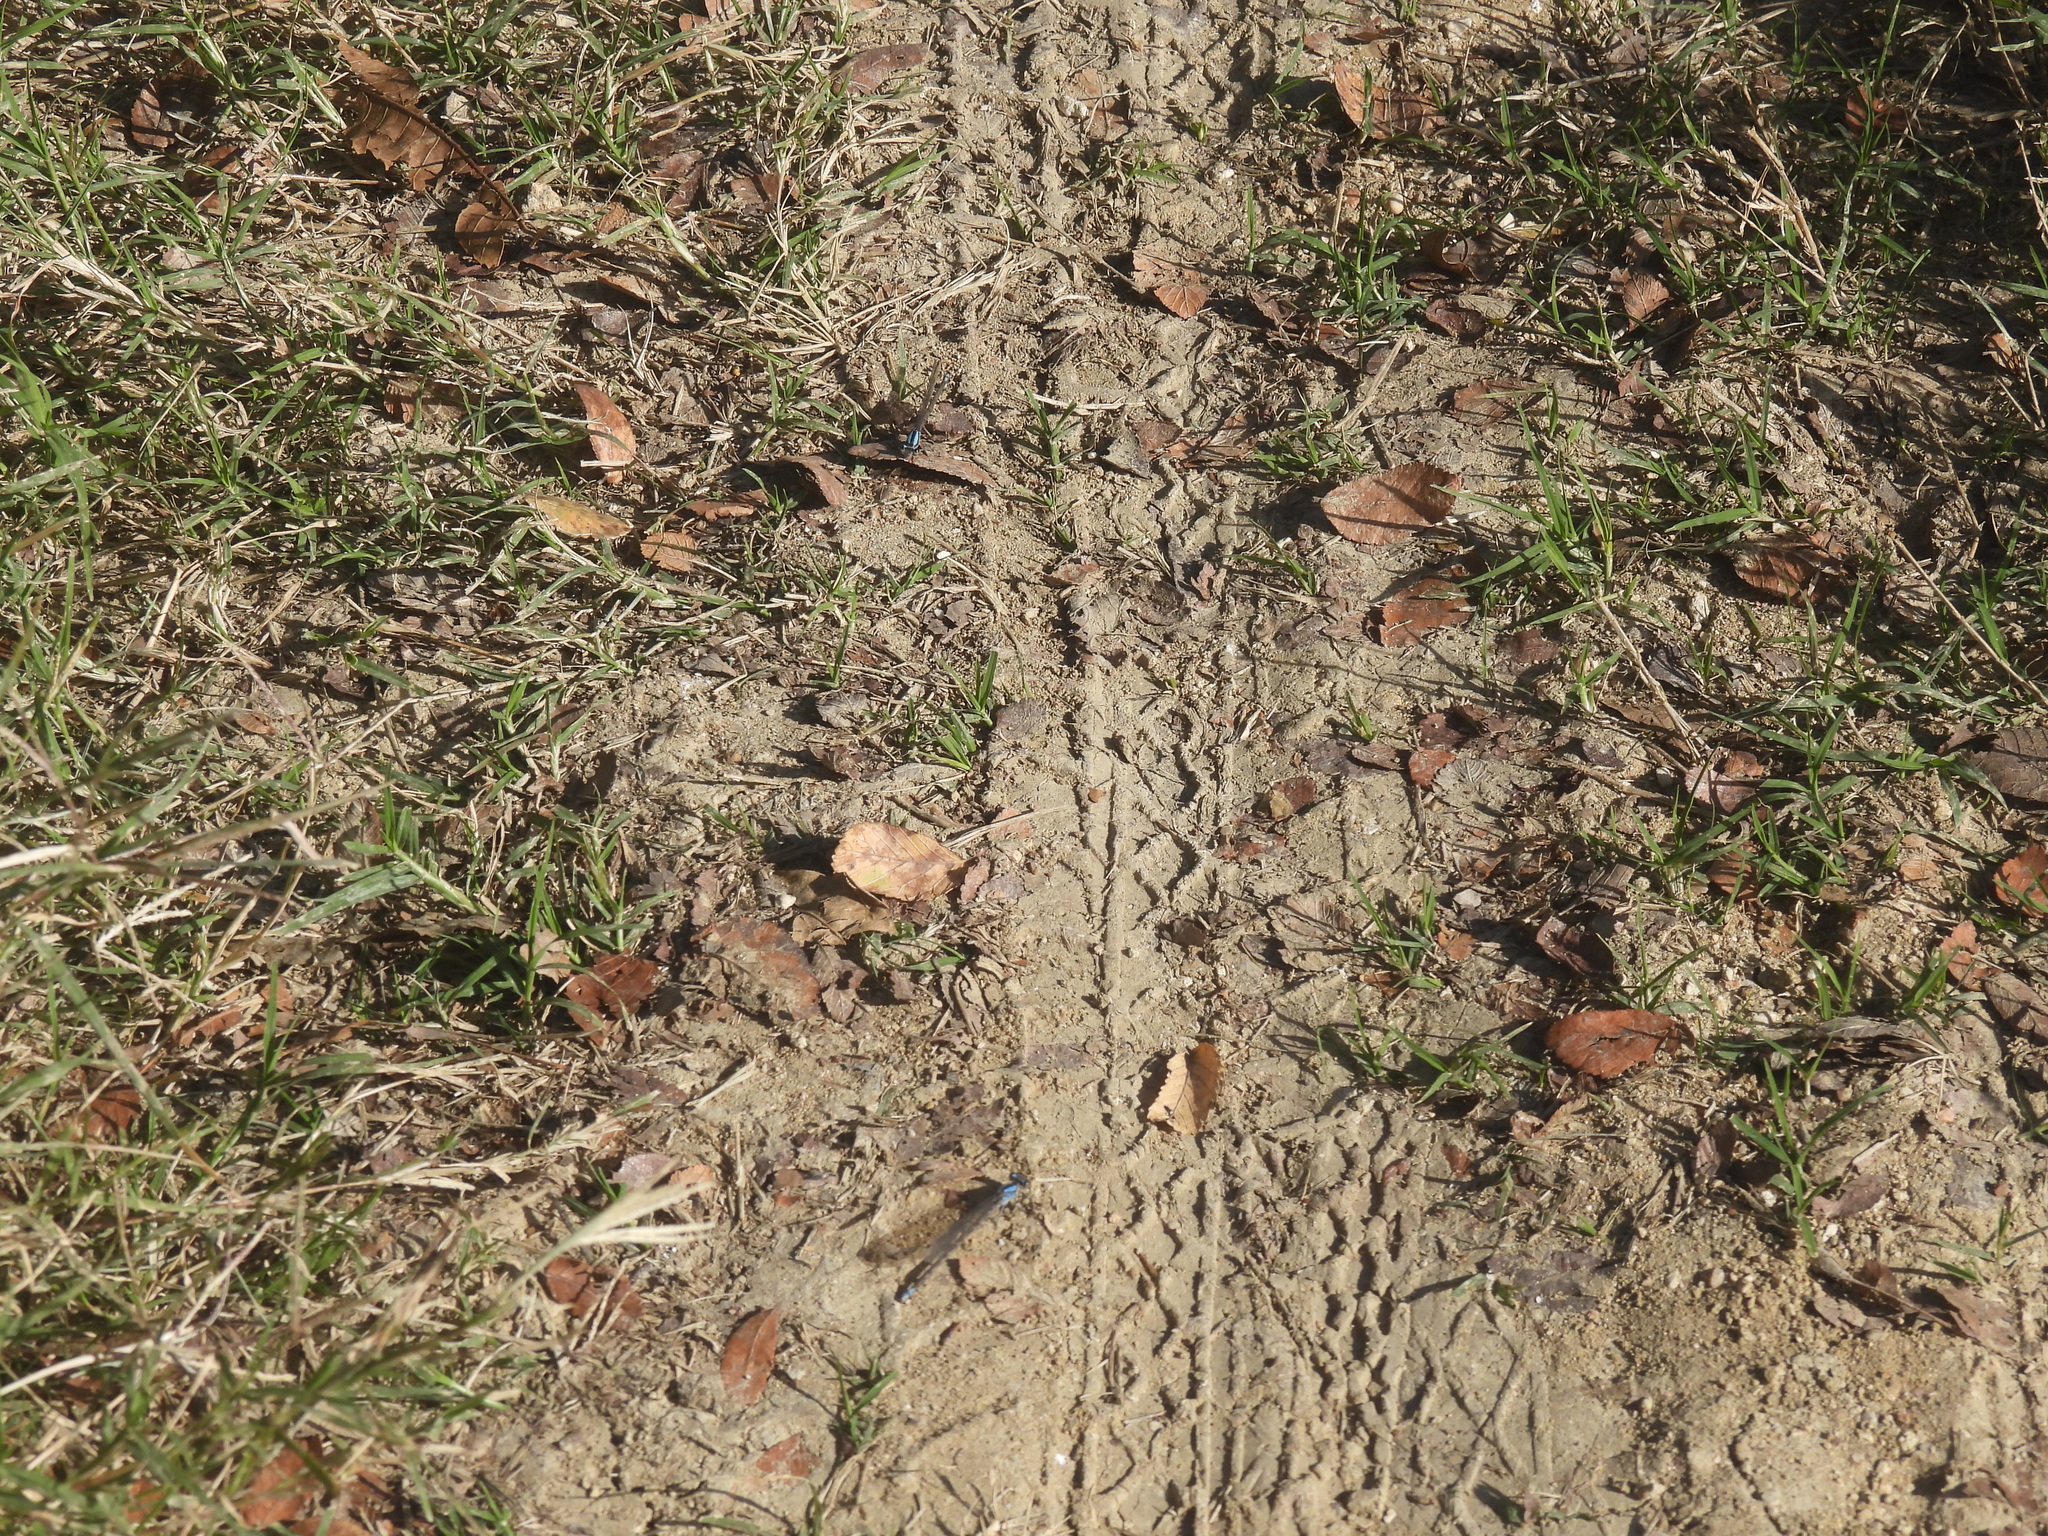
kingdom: Animalia
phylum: Arthropoda
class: Insecta
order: Odonata
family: Coenagrionidae
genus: Argia
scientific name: Argia immunda
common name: Kiowa dancer
